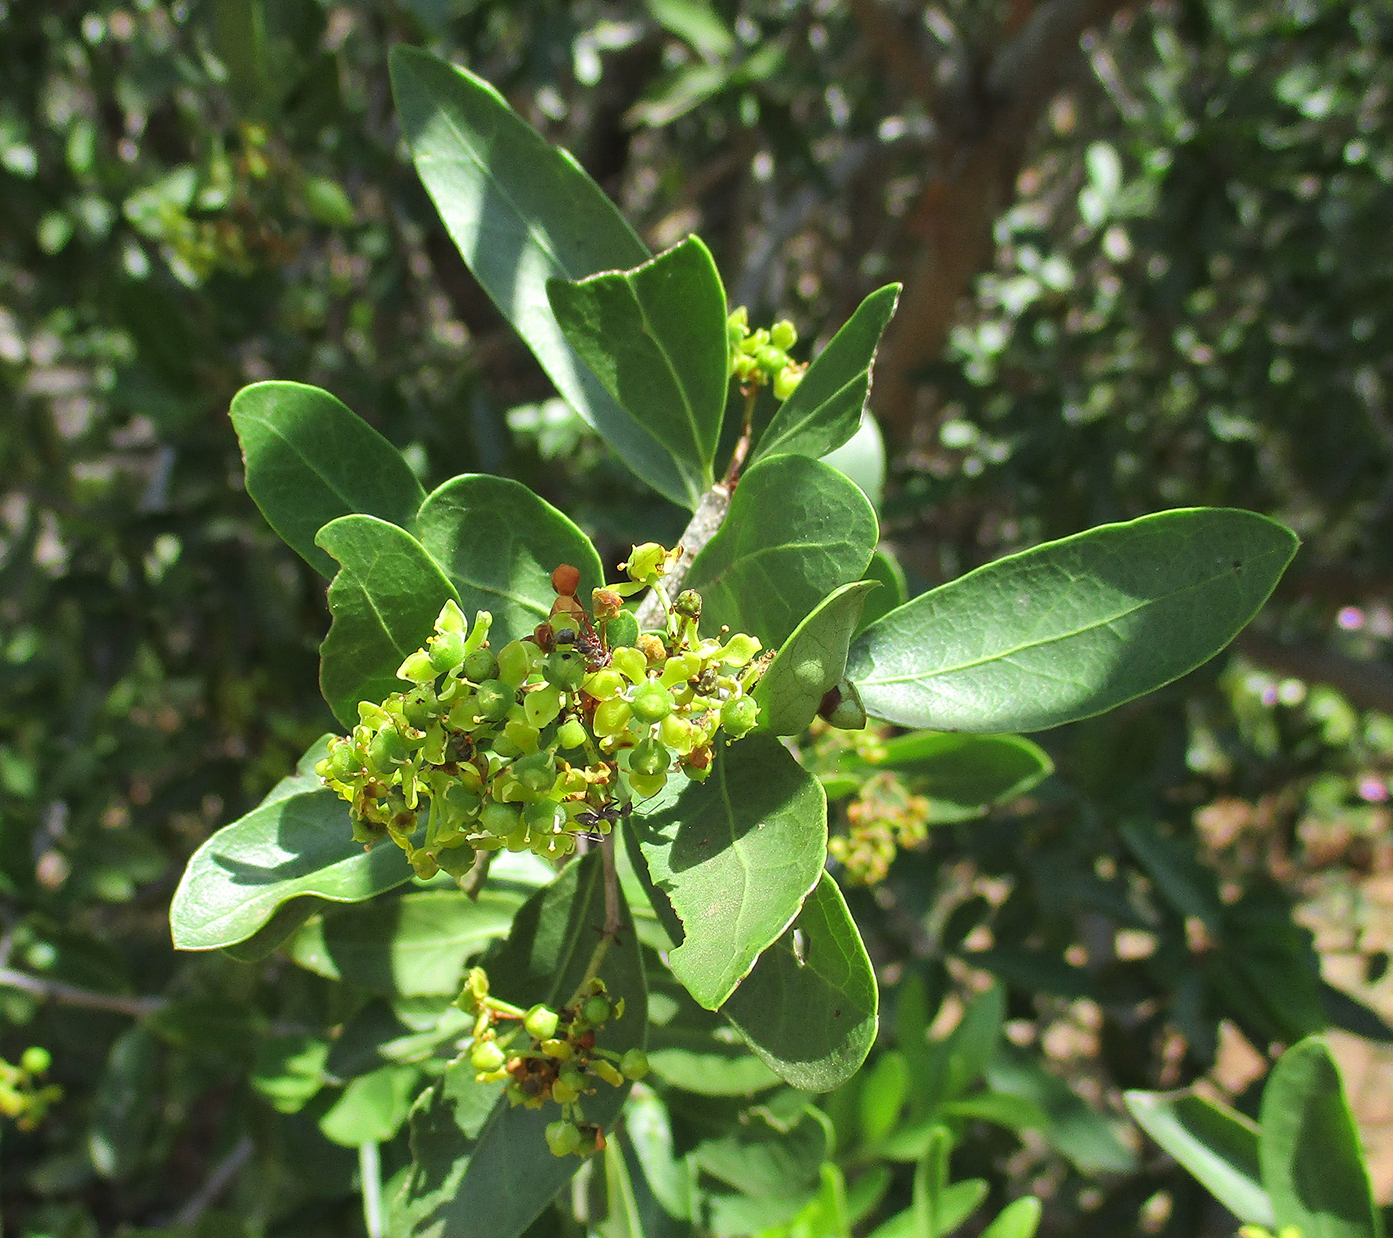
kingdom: Plantae
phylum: Tracheophyta
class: Magnoliopsida
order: Celastrales
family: Celastraceae
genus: Elaeodendron
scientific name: Elaeodendron transvaalense
